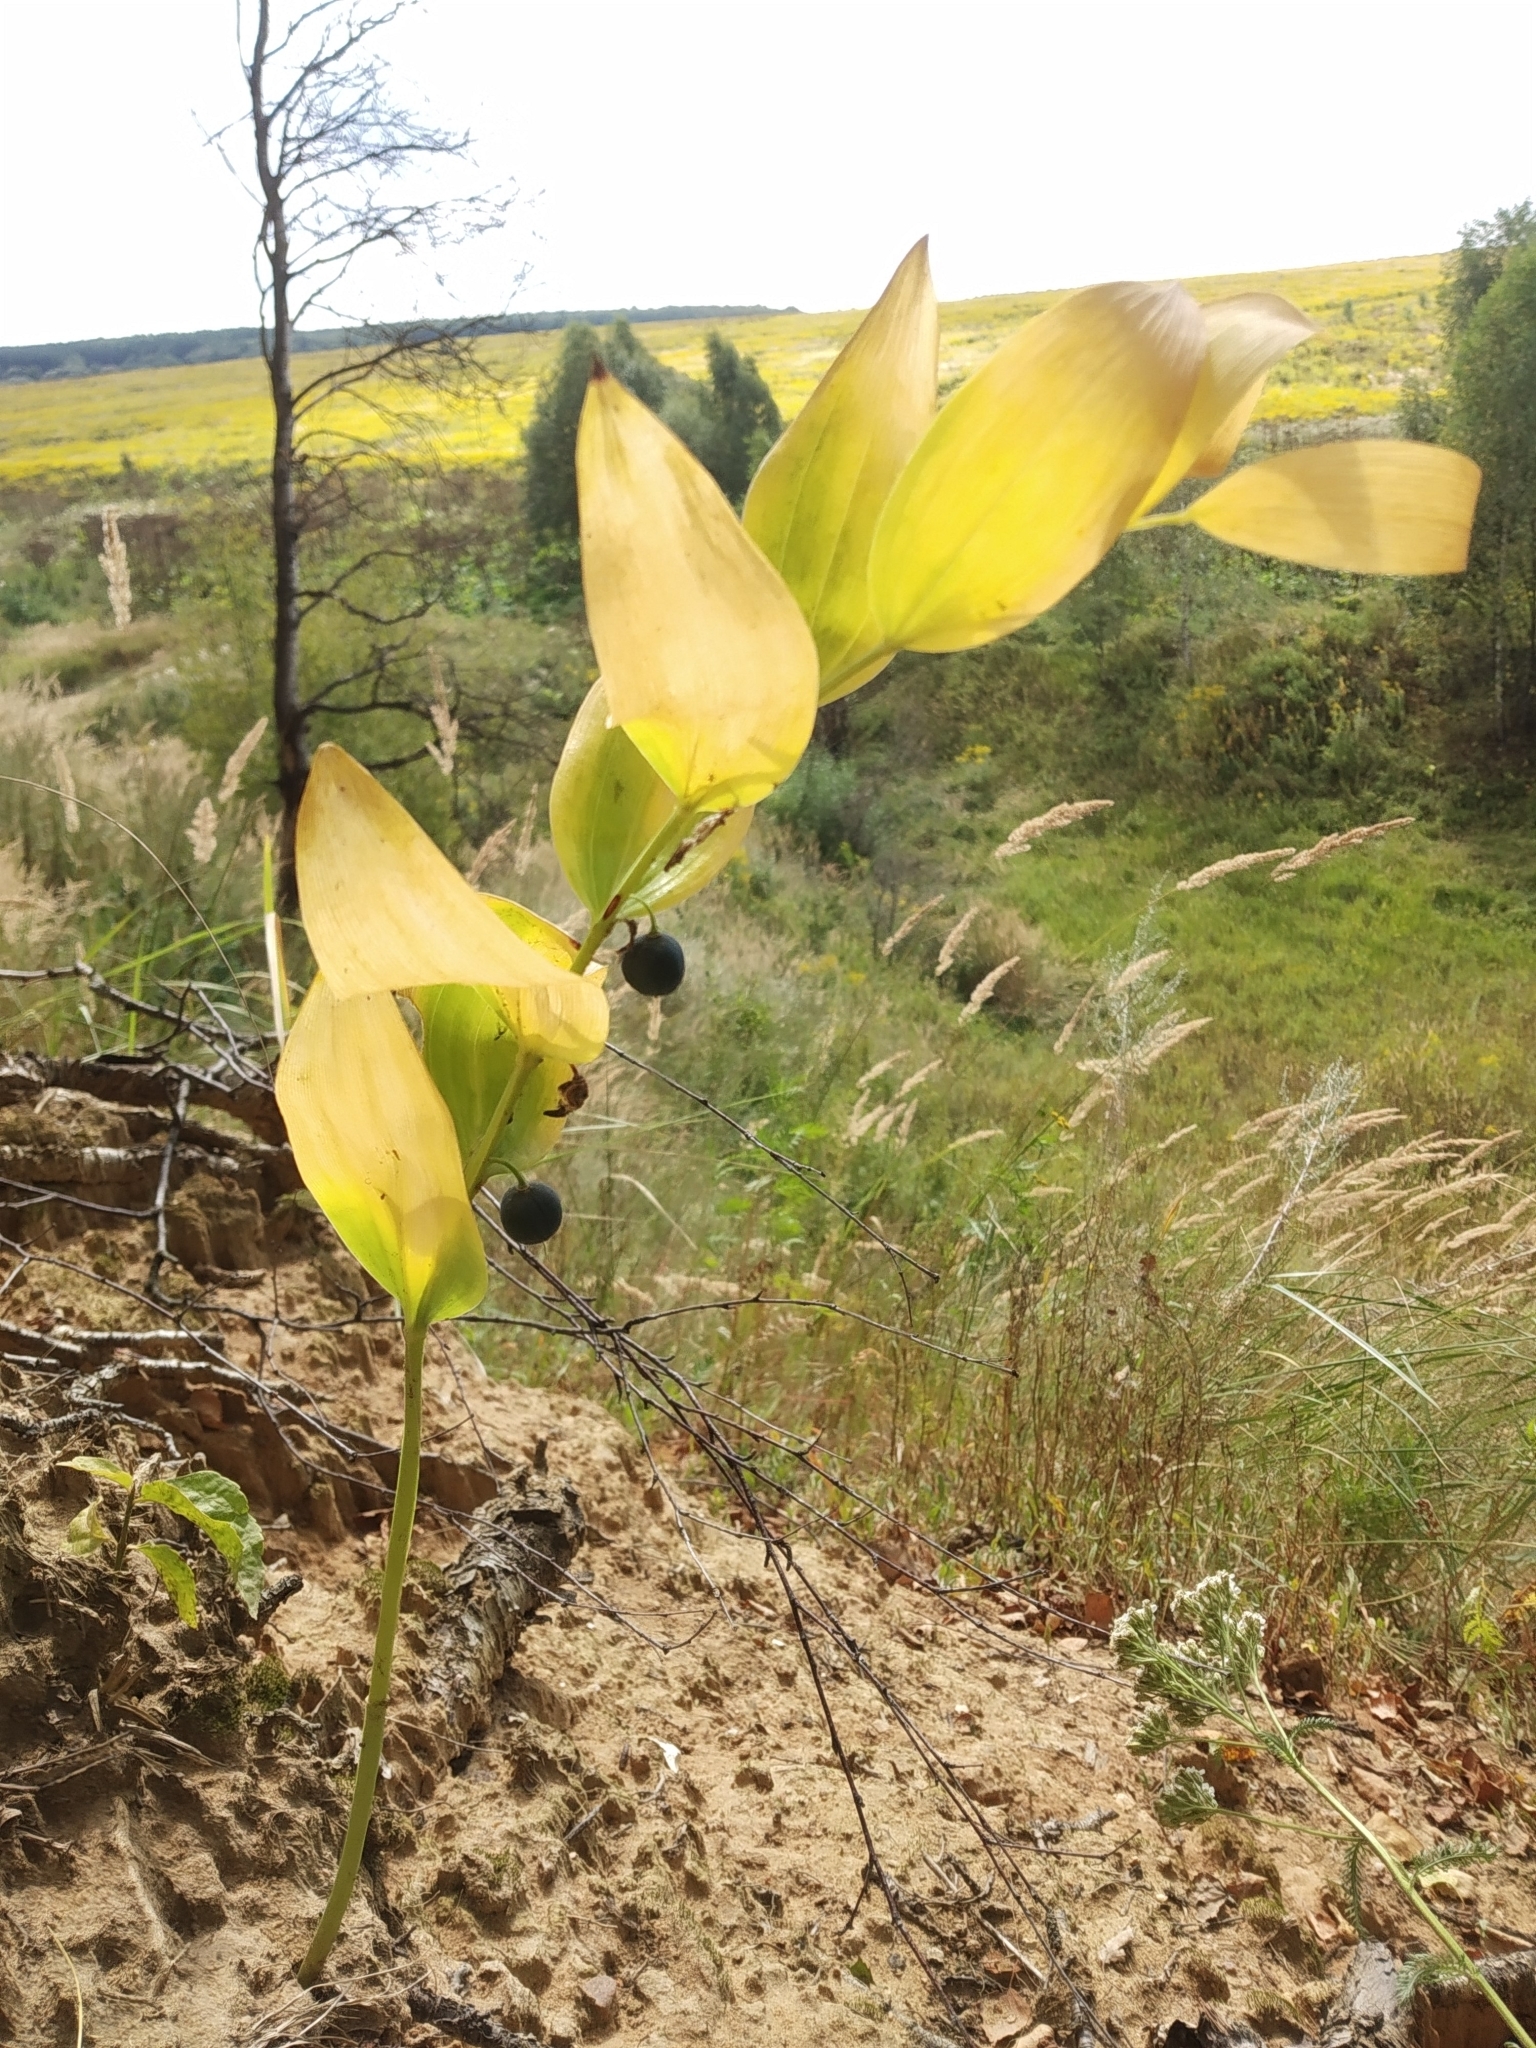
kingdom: Plantae
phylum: Tracheophyta
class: Liliopsida
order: Asparagales
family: Asparagaceae
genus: Polygonatum
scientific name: Polygonatum odoratum
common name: Angular solomon's-seal
